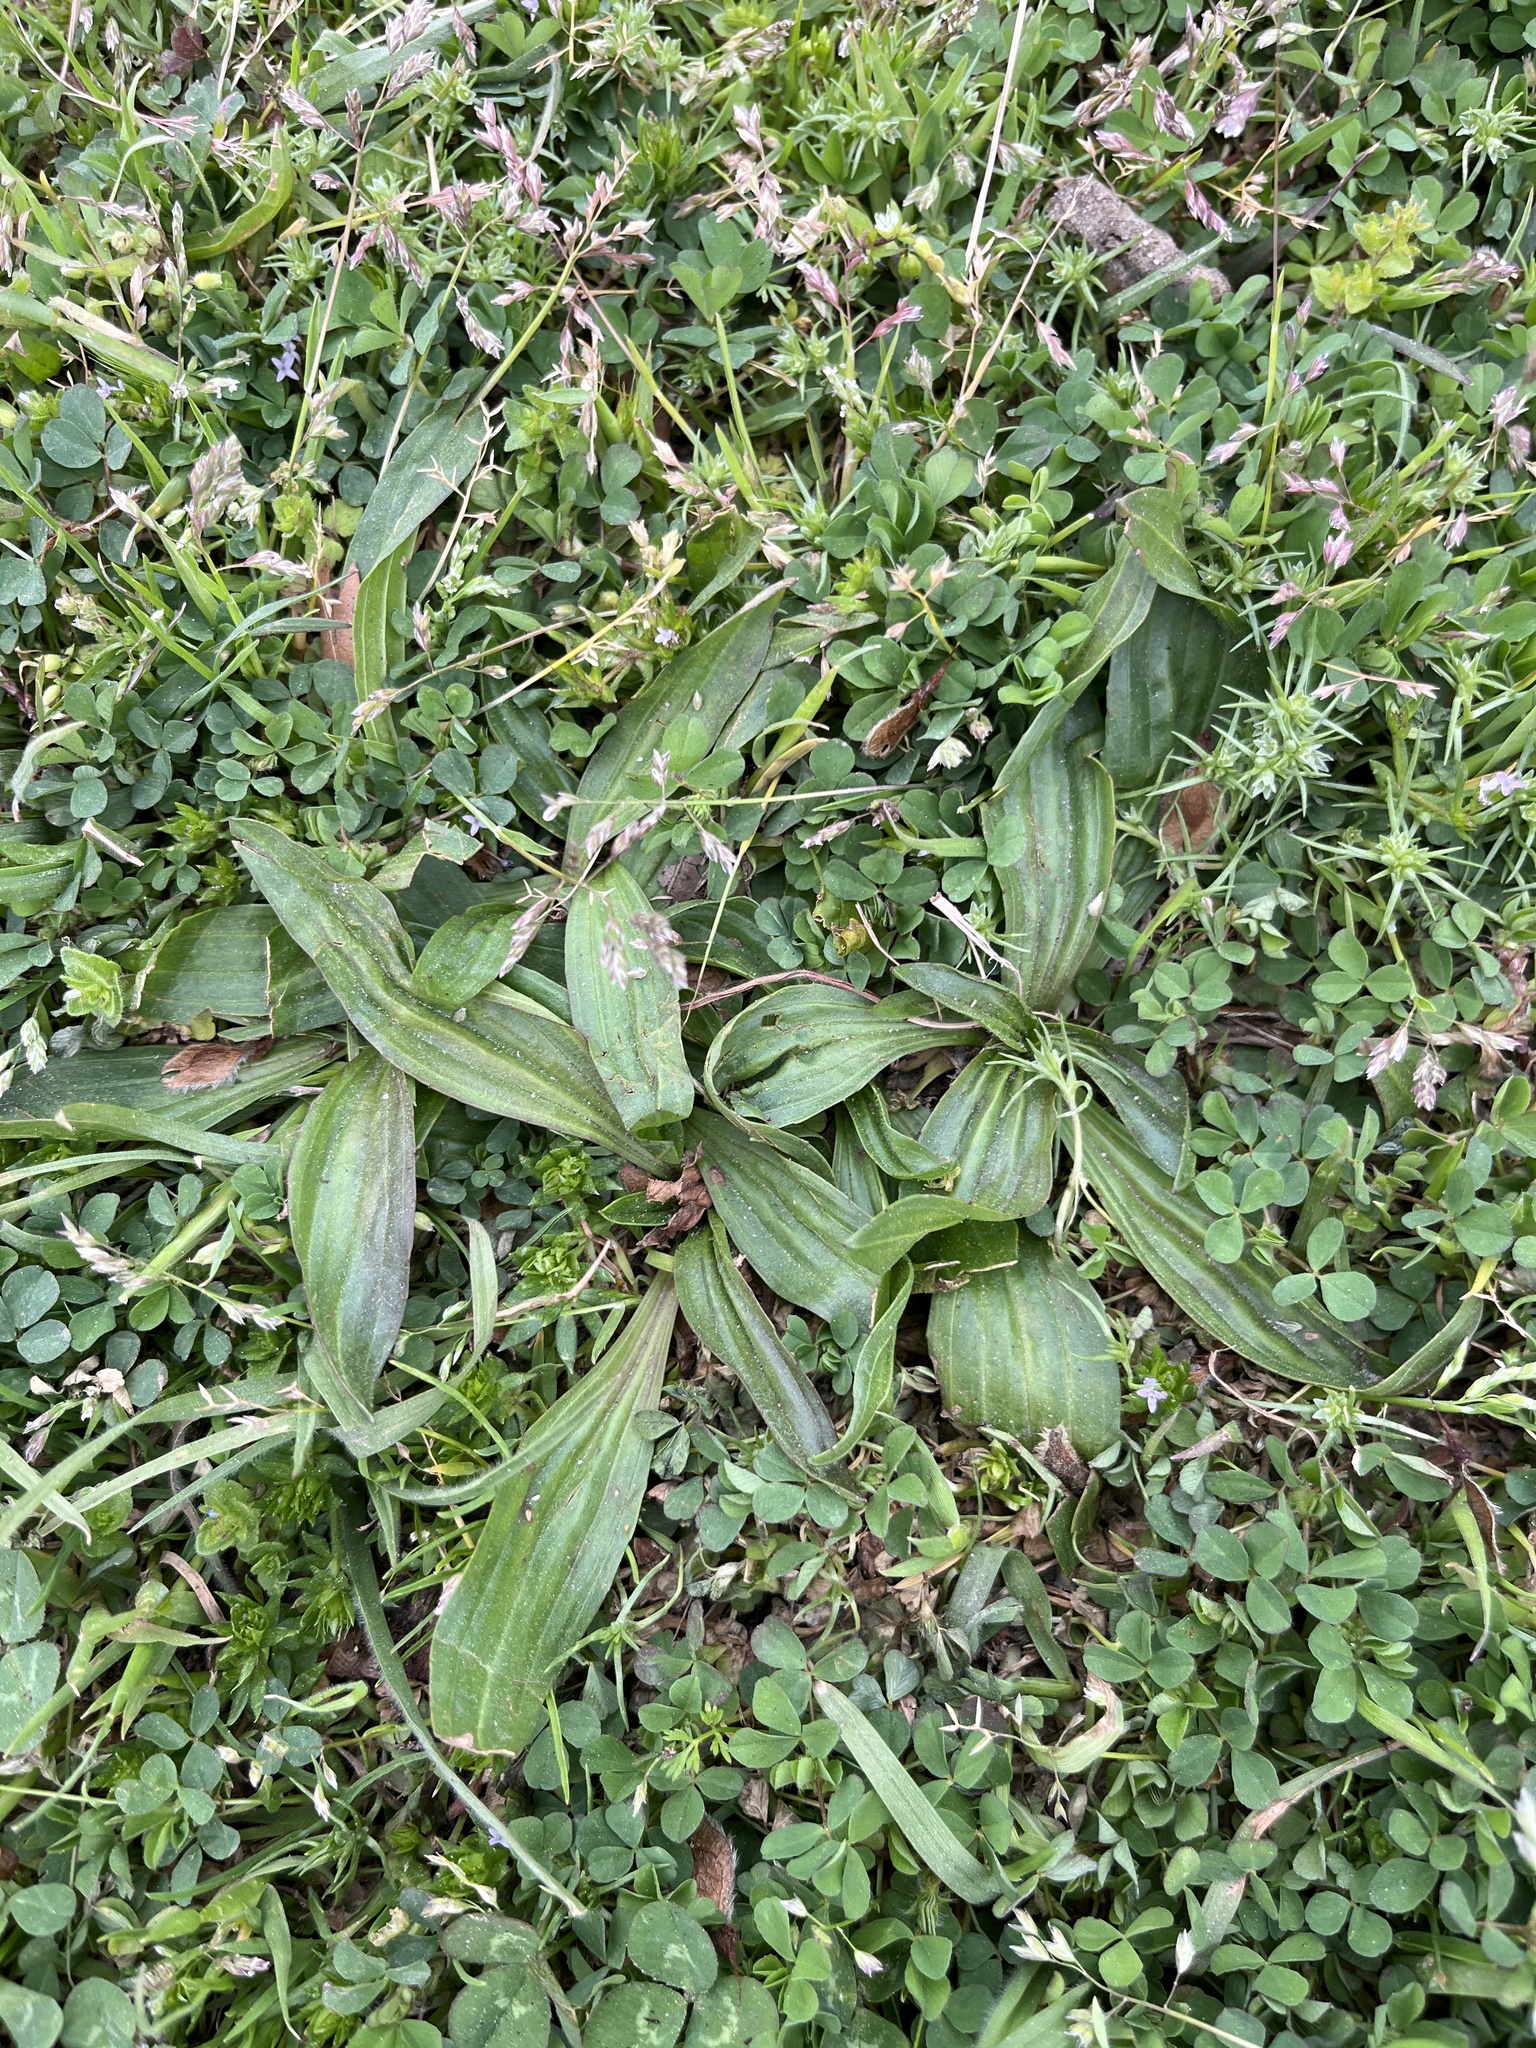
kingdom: Plantae
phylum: Tracheophyta
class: Magnoliopsida
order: Lamiales
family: Plantaginaceae
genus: Plantago
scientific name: Plantago lanceolata
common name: Ribwort plantain
